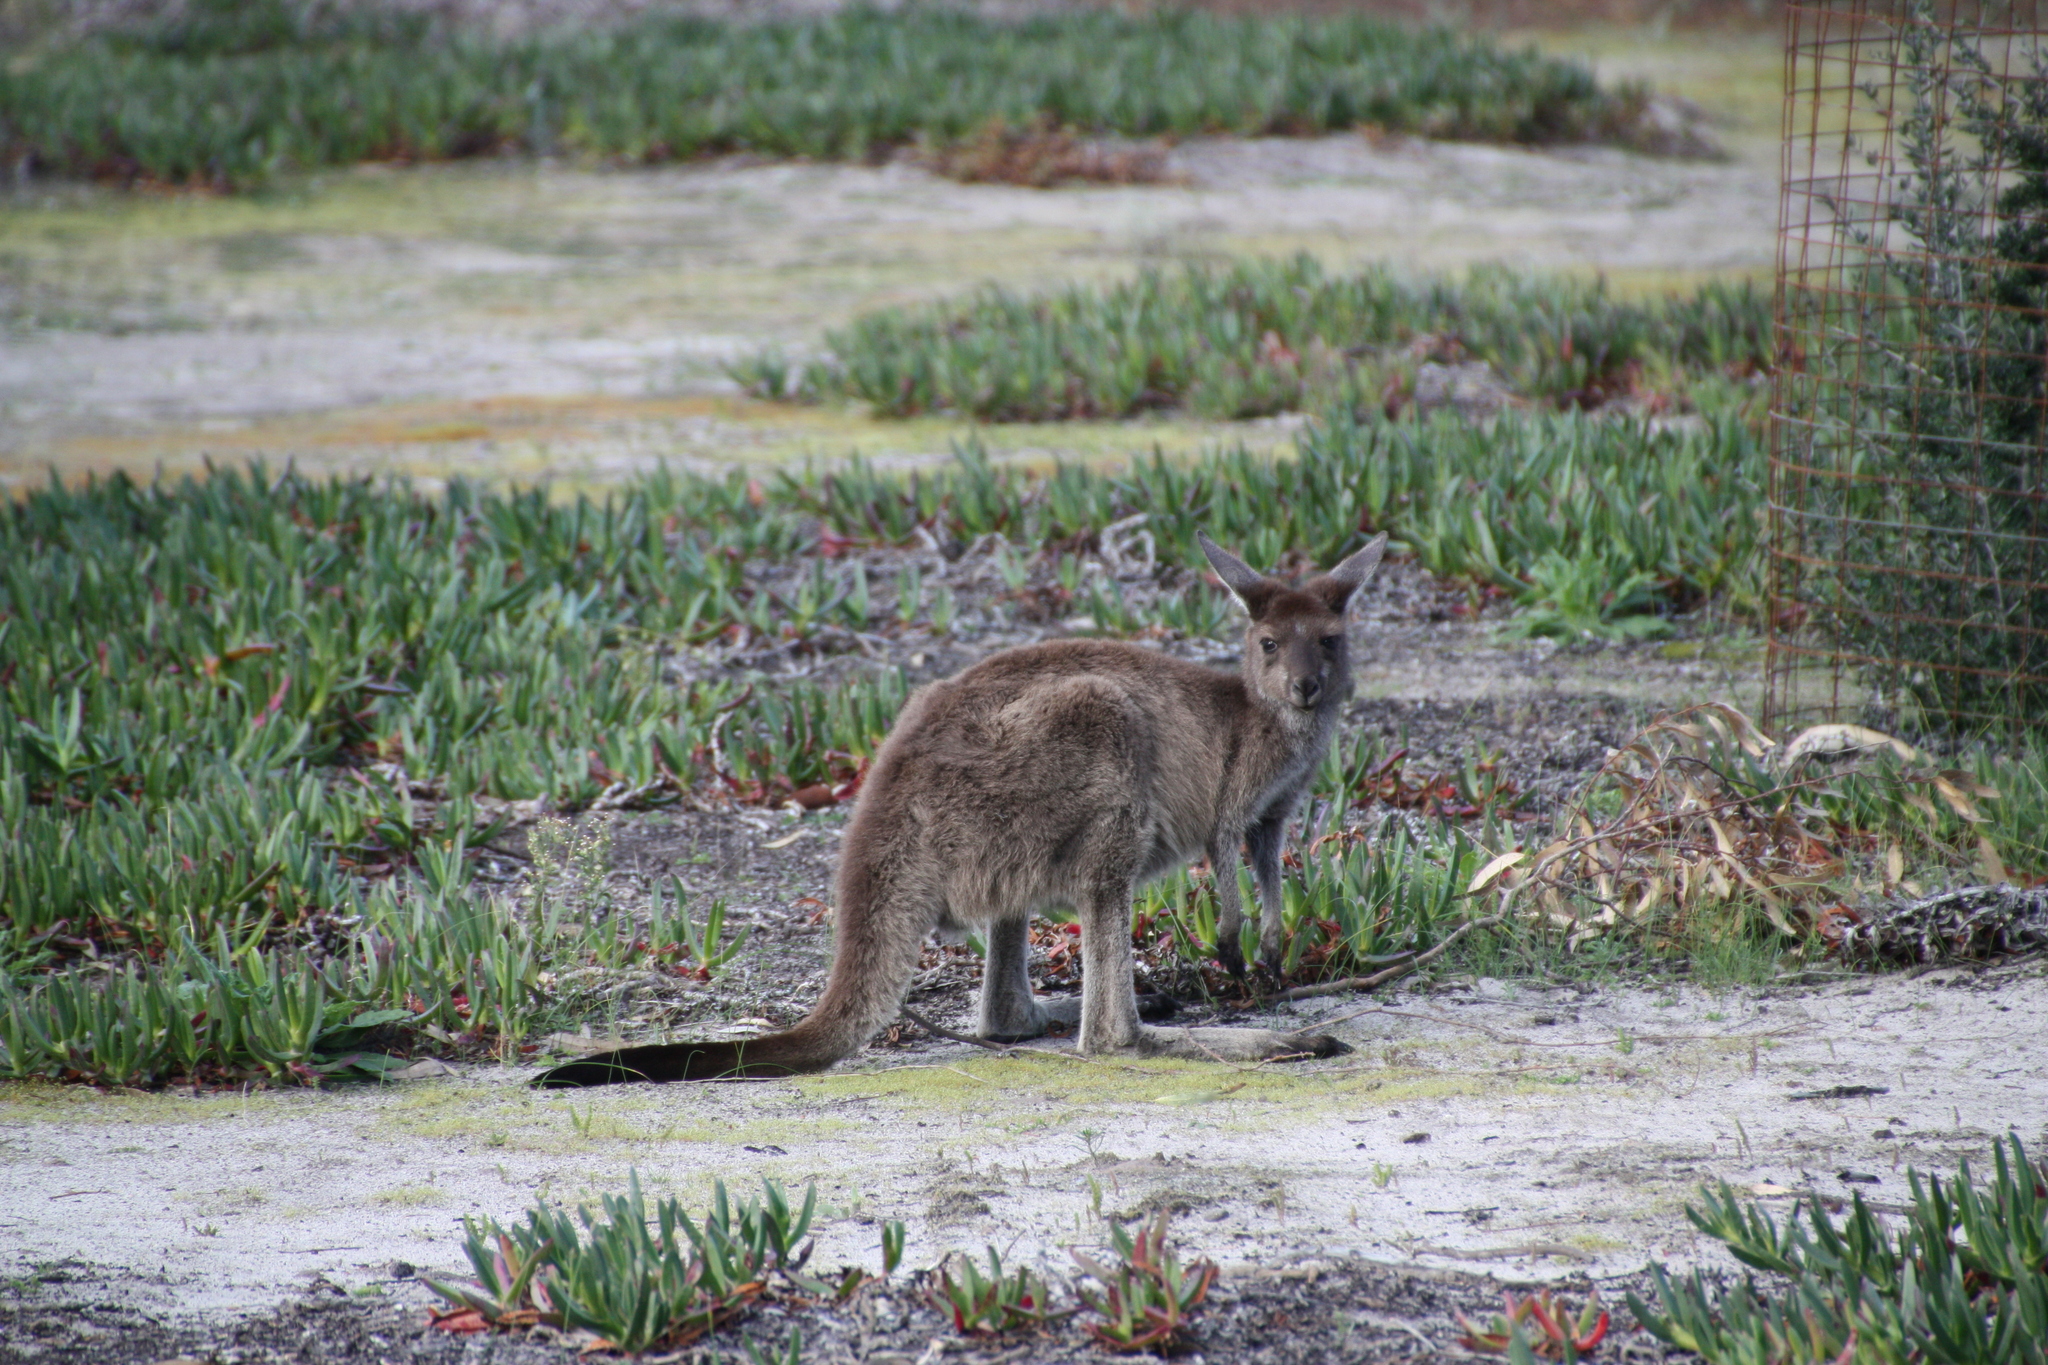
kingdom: Animalia
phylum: Chordata
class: Mammalia
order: Diprotodontia
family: Macropodidae
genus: Macropus
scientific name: Macropus fuliginosus
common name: Western grey kangaroo
